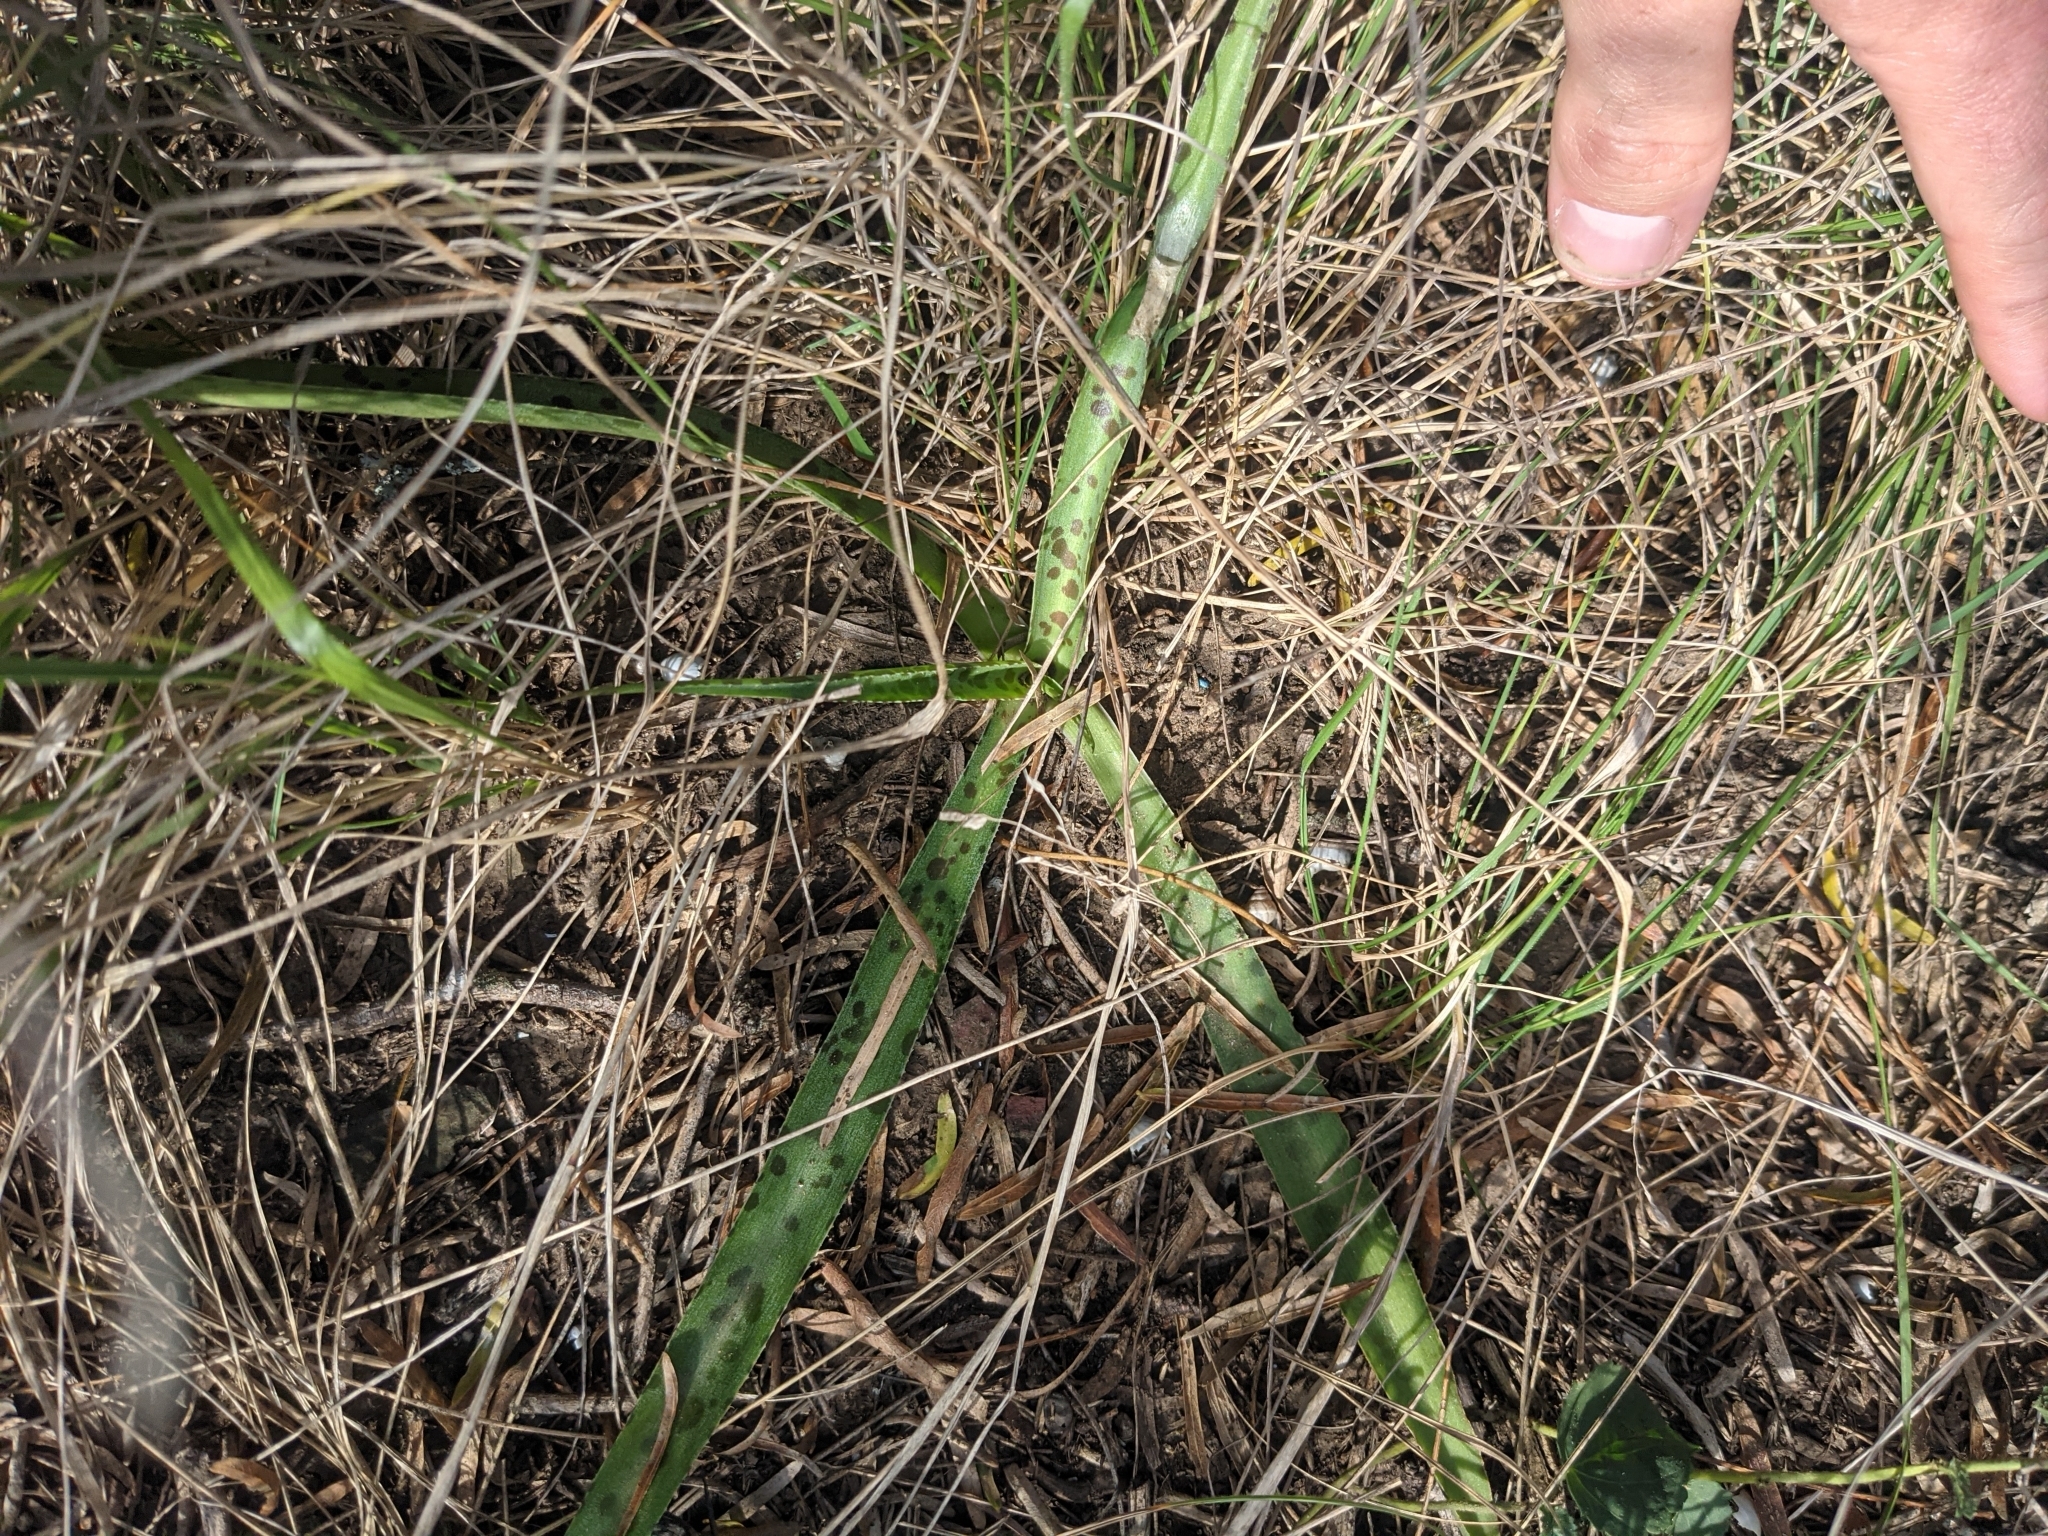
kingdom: Plantae
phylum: Tracheophyta
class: Liliopsida
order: Asparagales
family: Asparagaceae
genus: Agave
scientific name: Agave maculata
